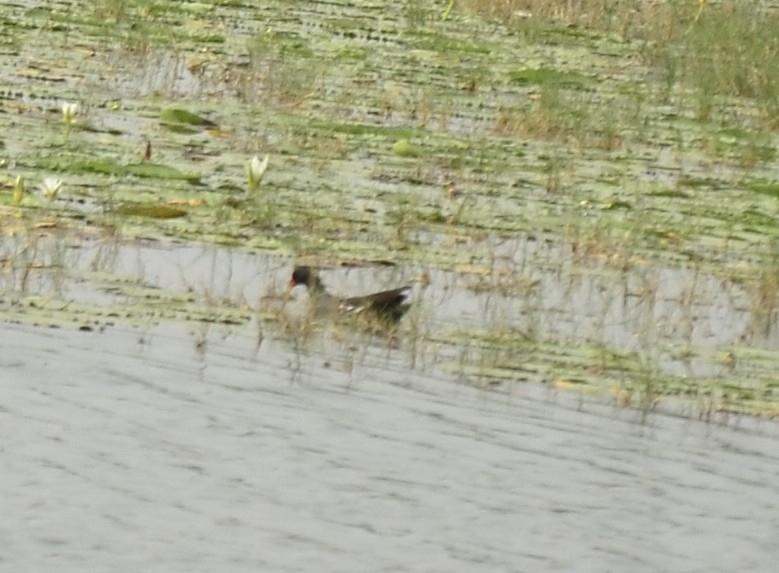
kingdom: Animalia
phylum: Chordata
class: Aves
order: Gruiformes
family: Rallidae
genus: Gallinula
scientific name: Gallinula chloropus
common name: Common moorhen
